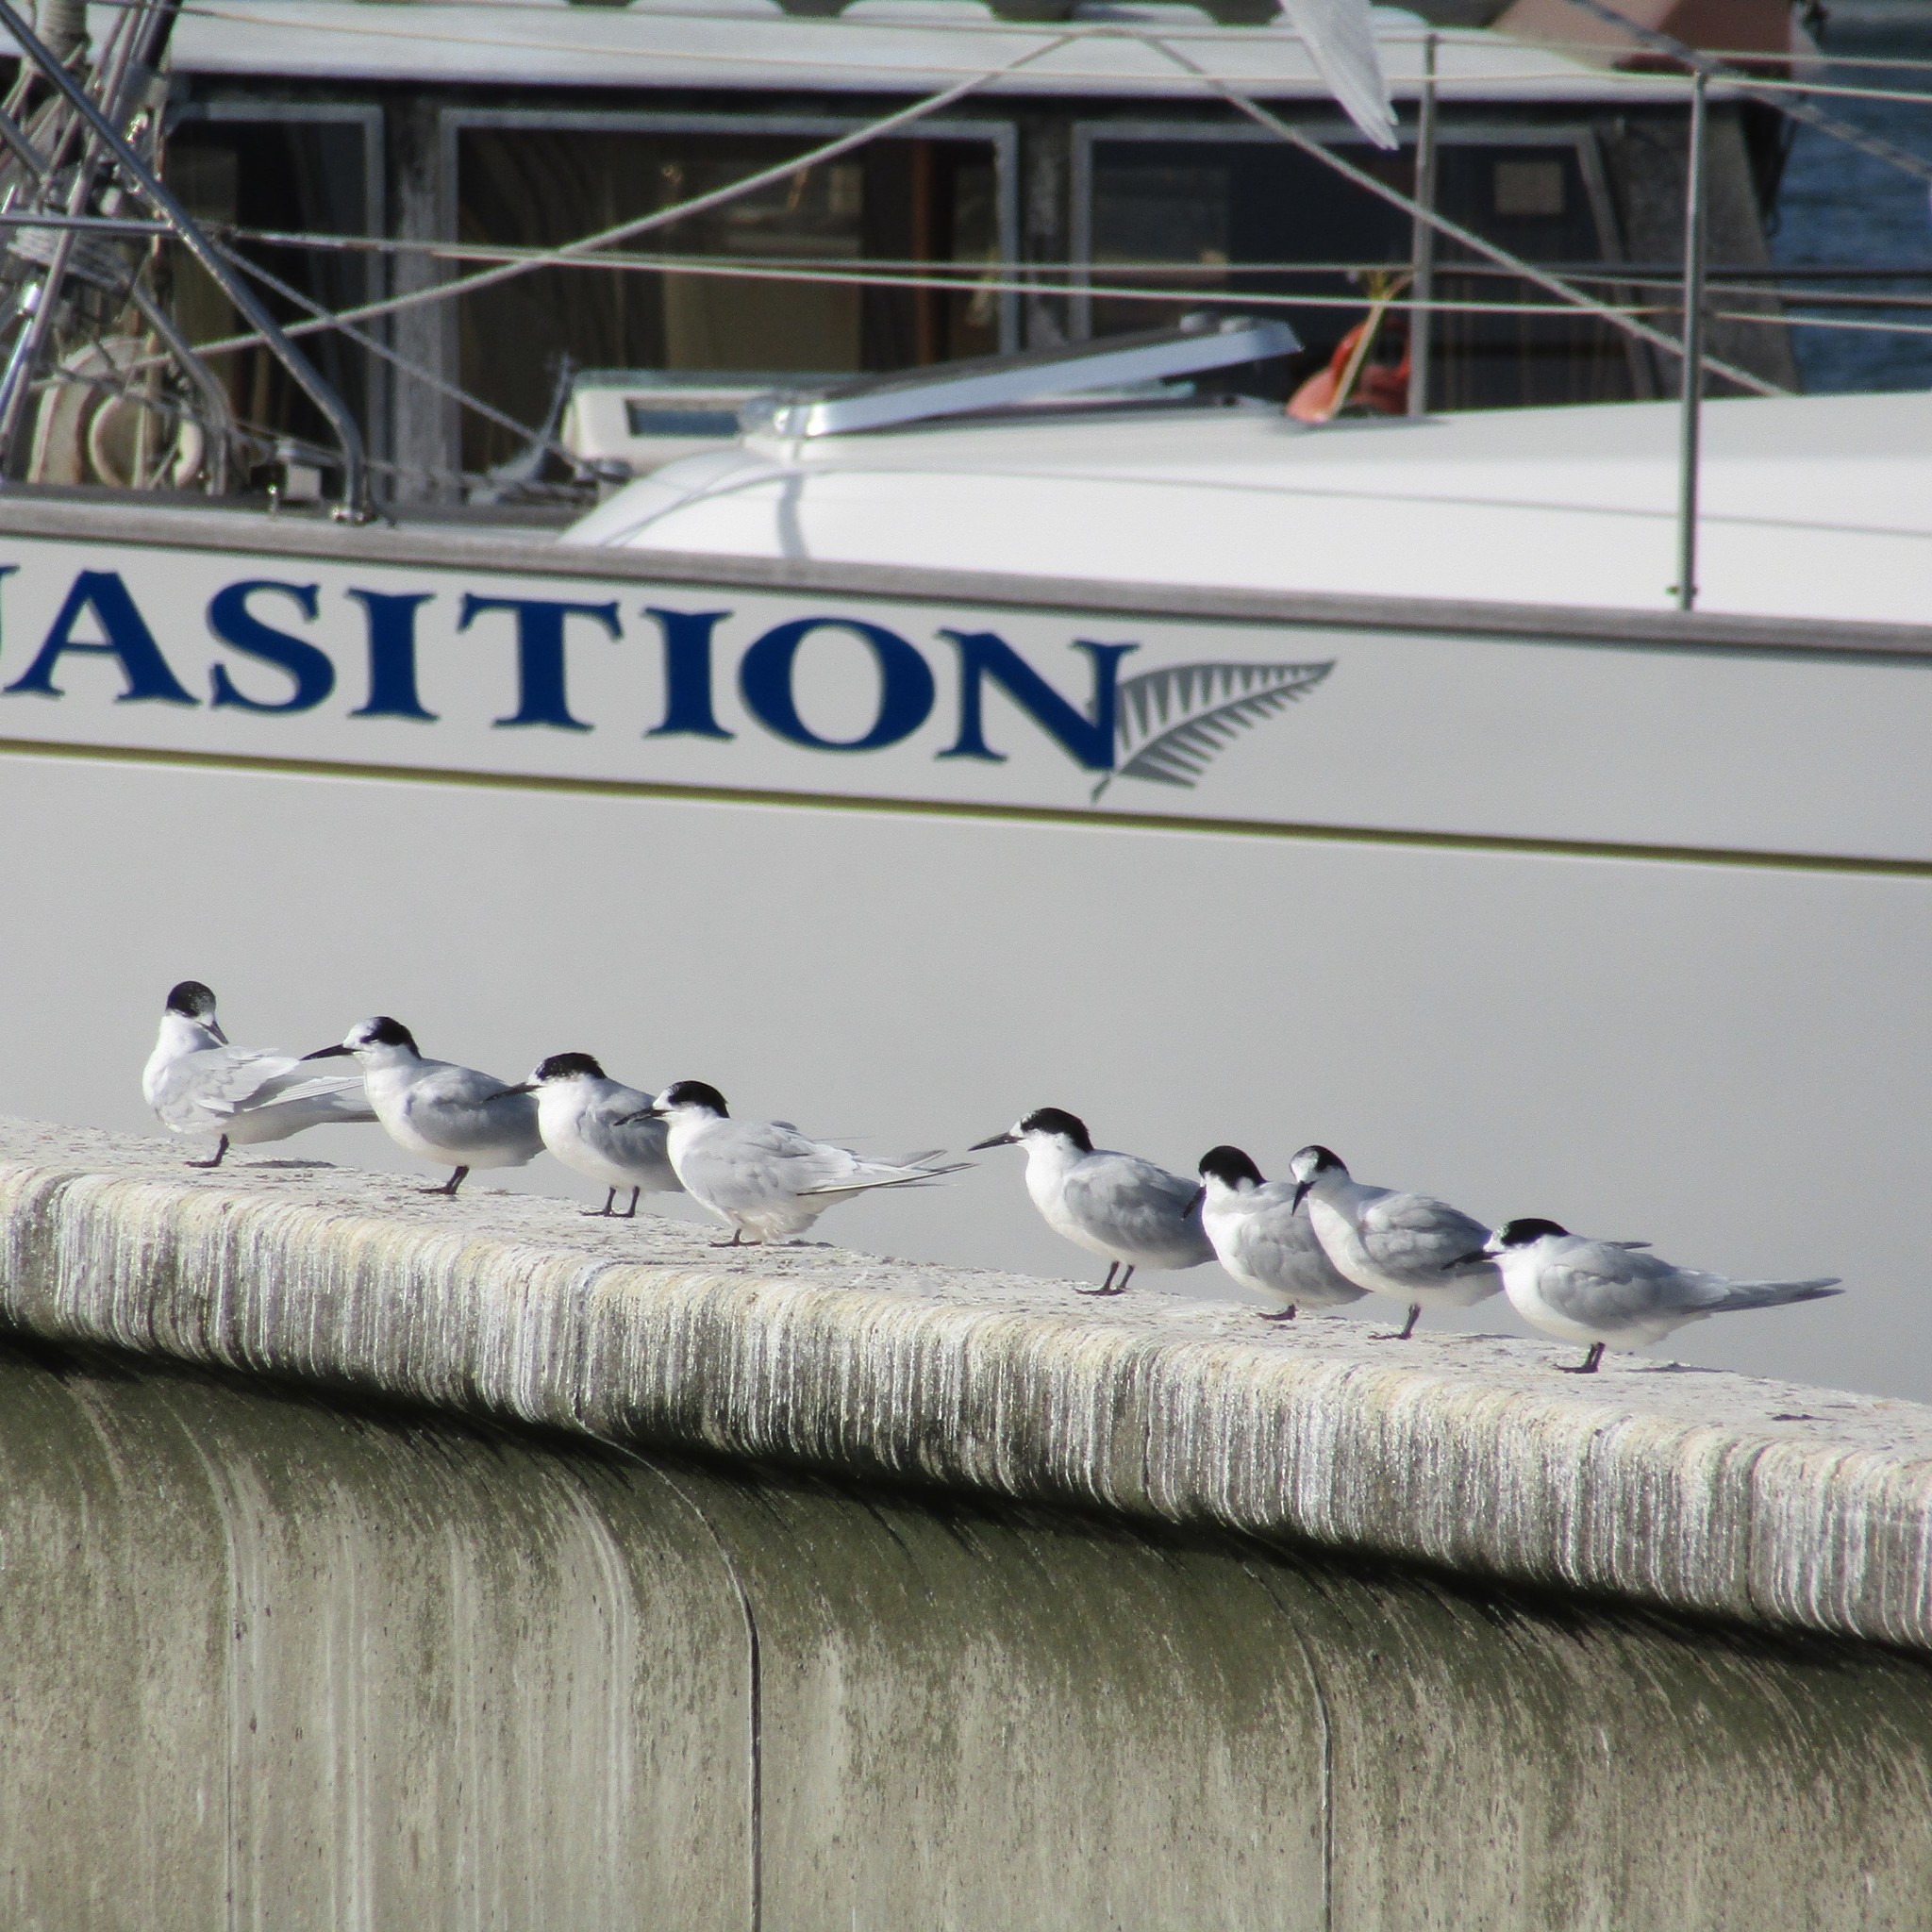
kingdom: Animalia
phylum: Chordata
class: Aves
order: Charadriiformes
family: Laridae
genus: Sterna
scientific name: Sterna striata
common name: White-fronted tern
